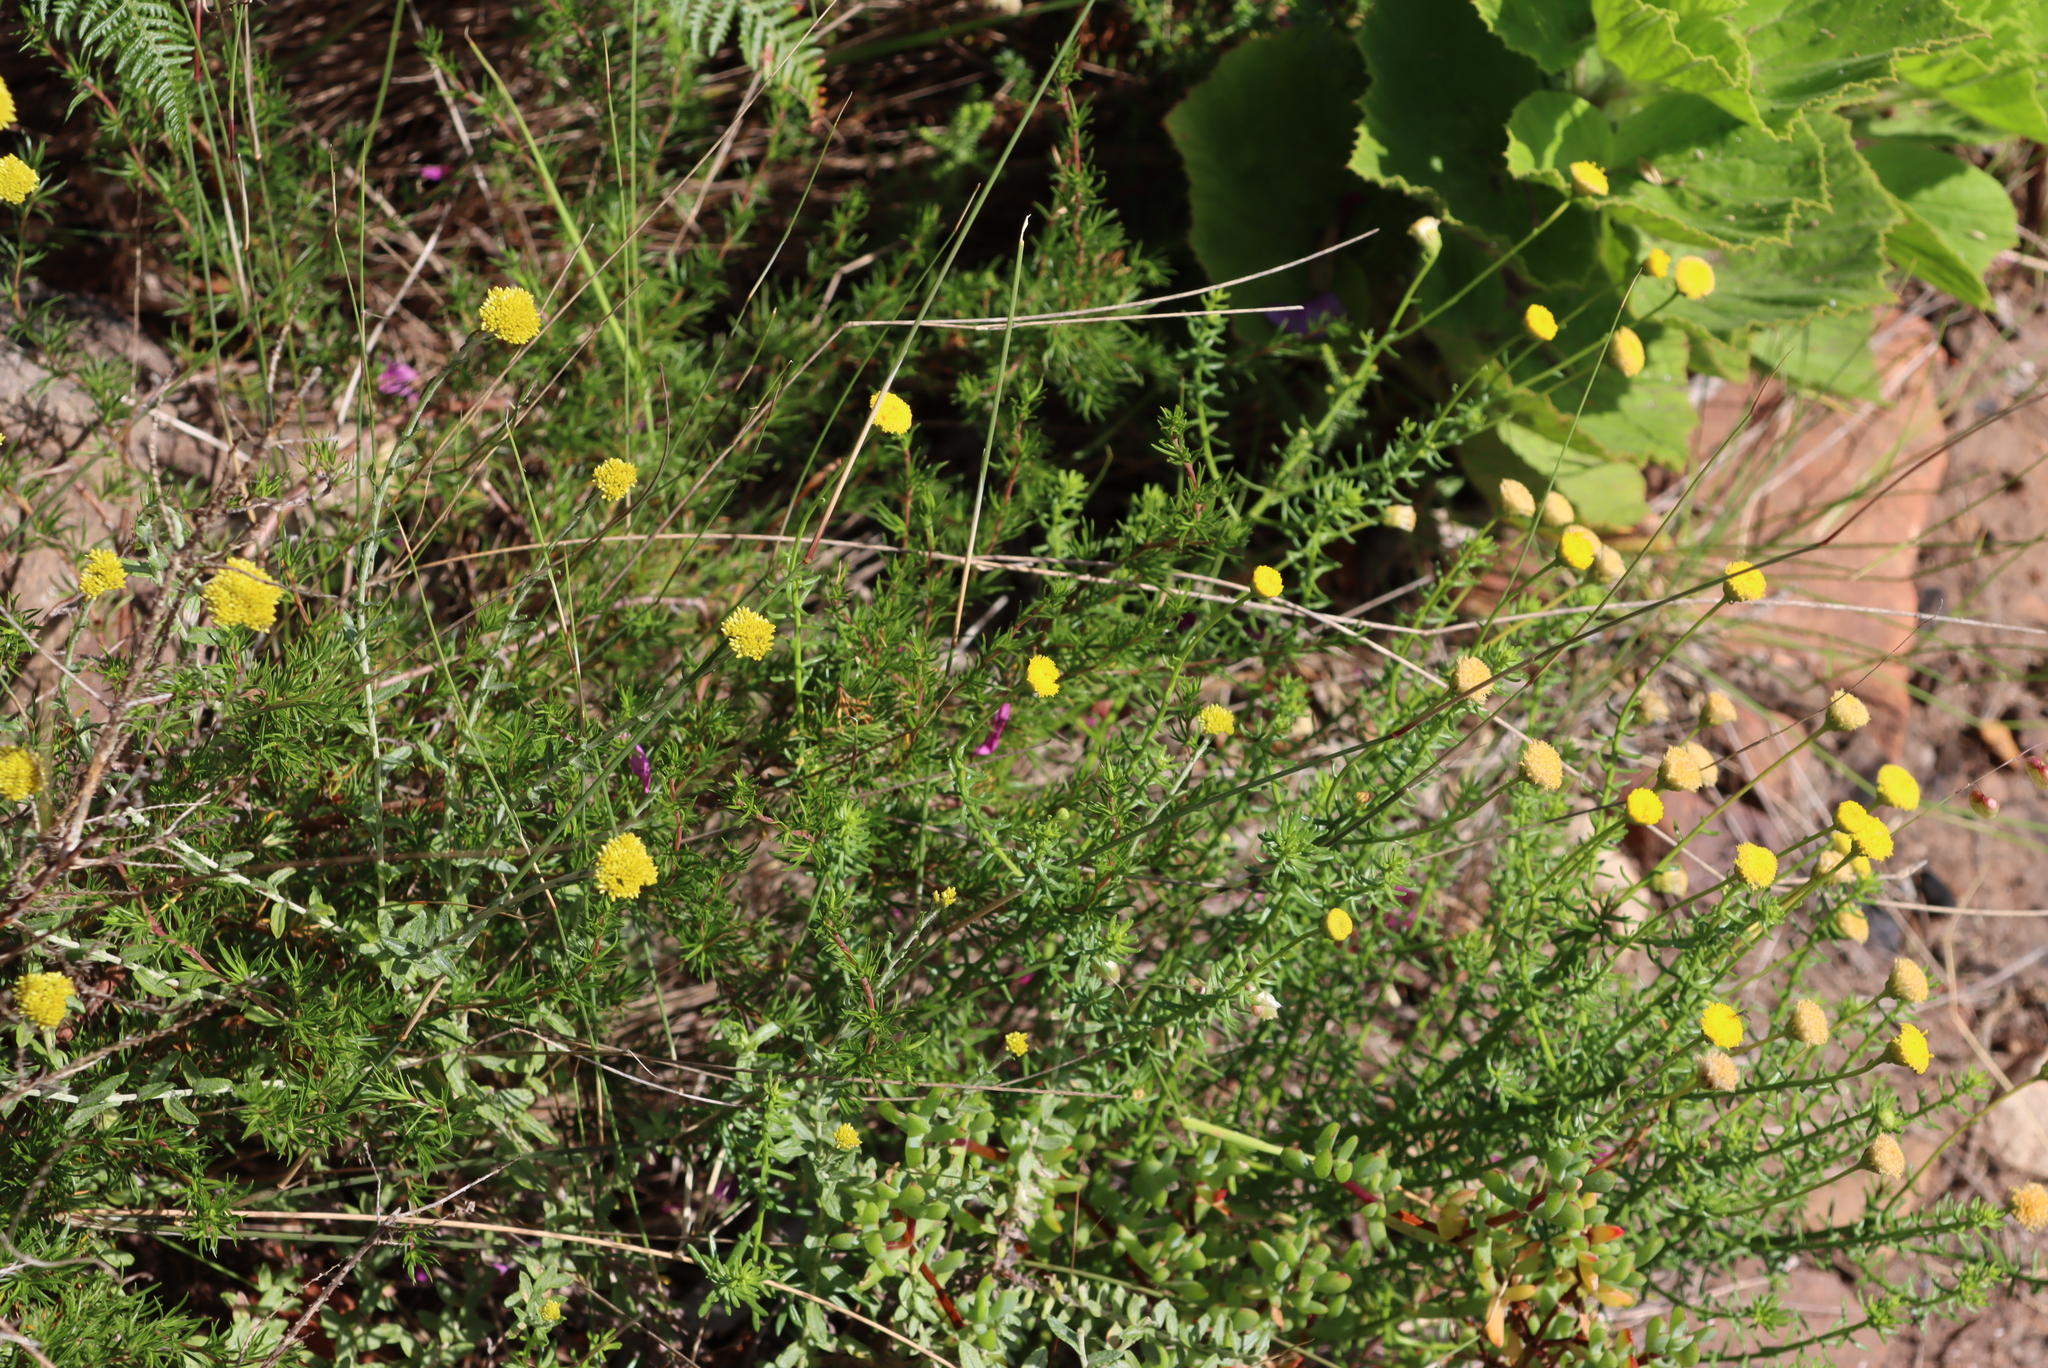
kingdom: Plantae
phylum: Tracheophyta
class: Magnoliopsida
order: Asterales
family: Asteraceae
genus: Chrysocoma
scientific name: Chrysocoma cernua
